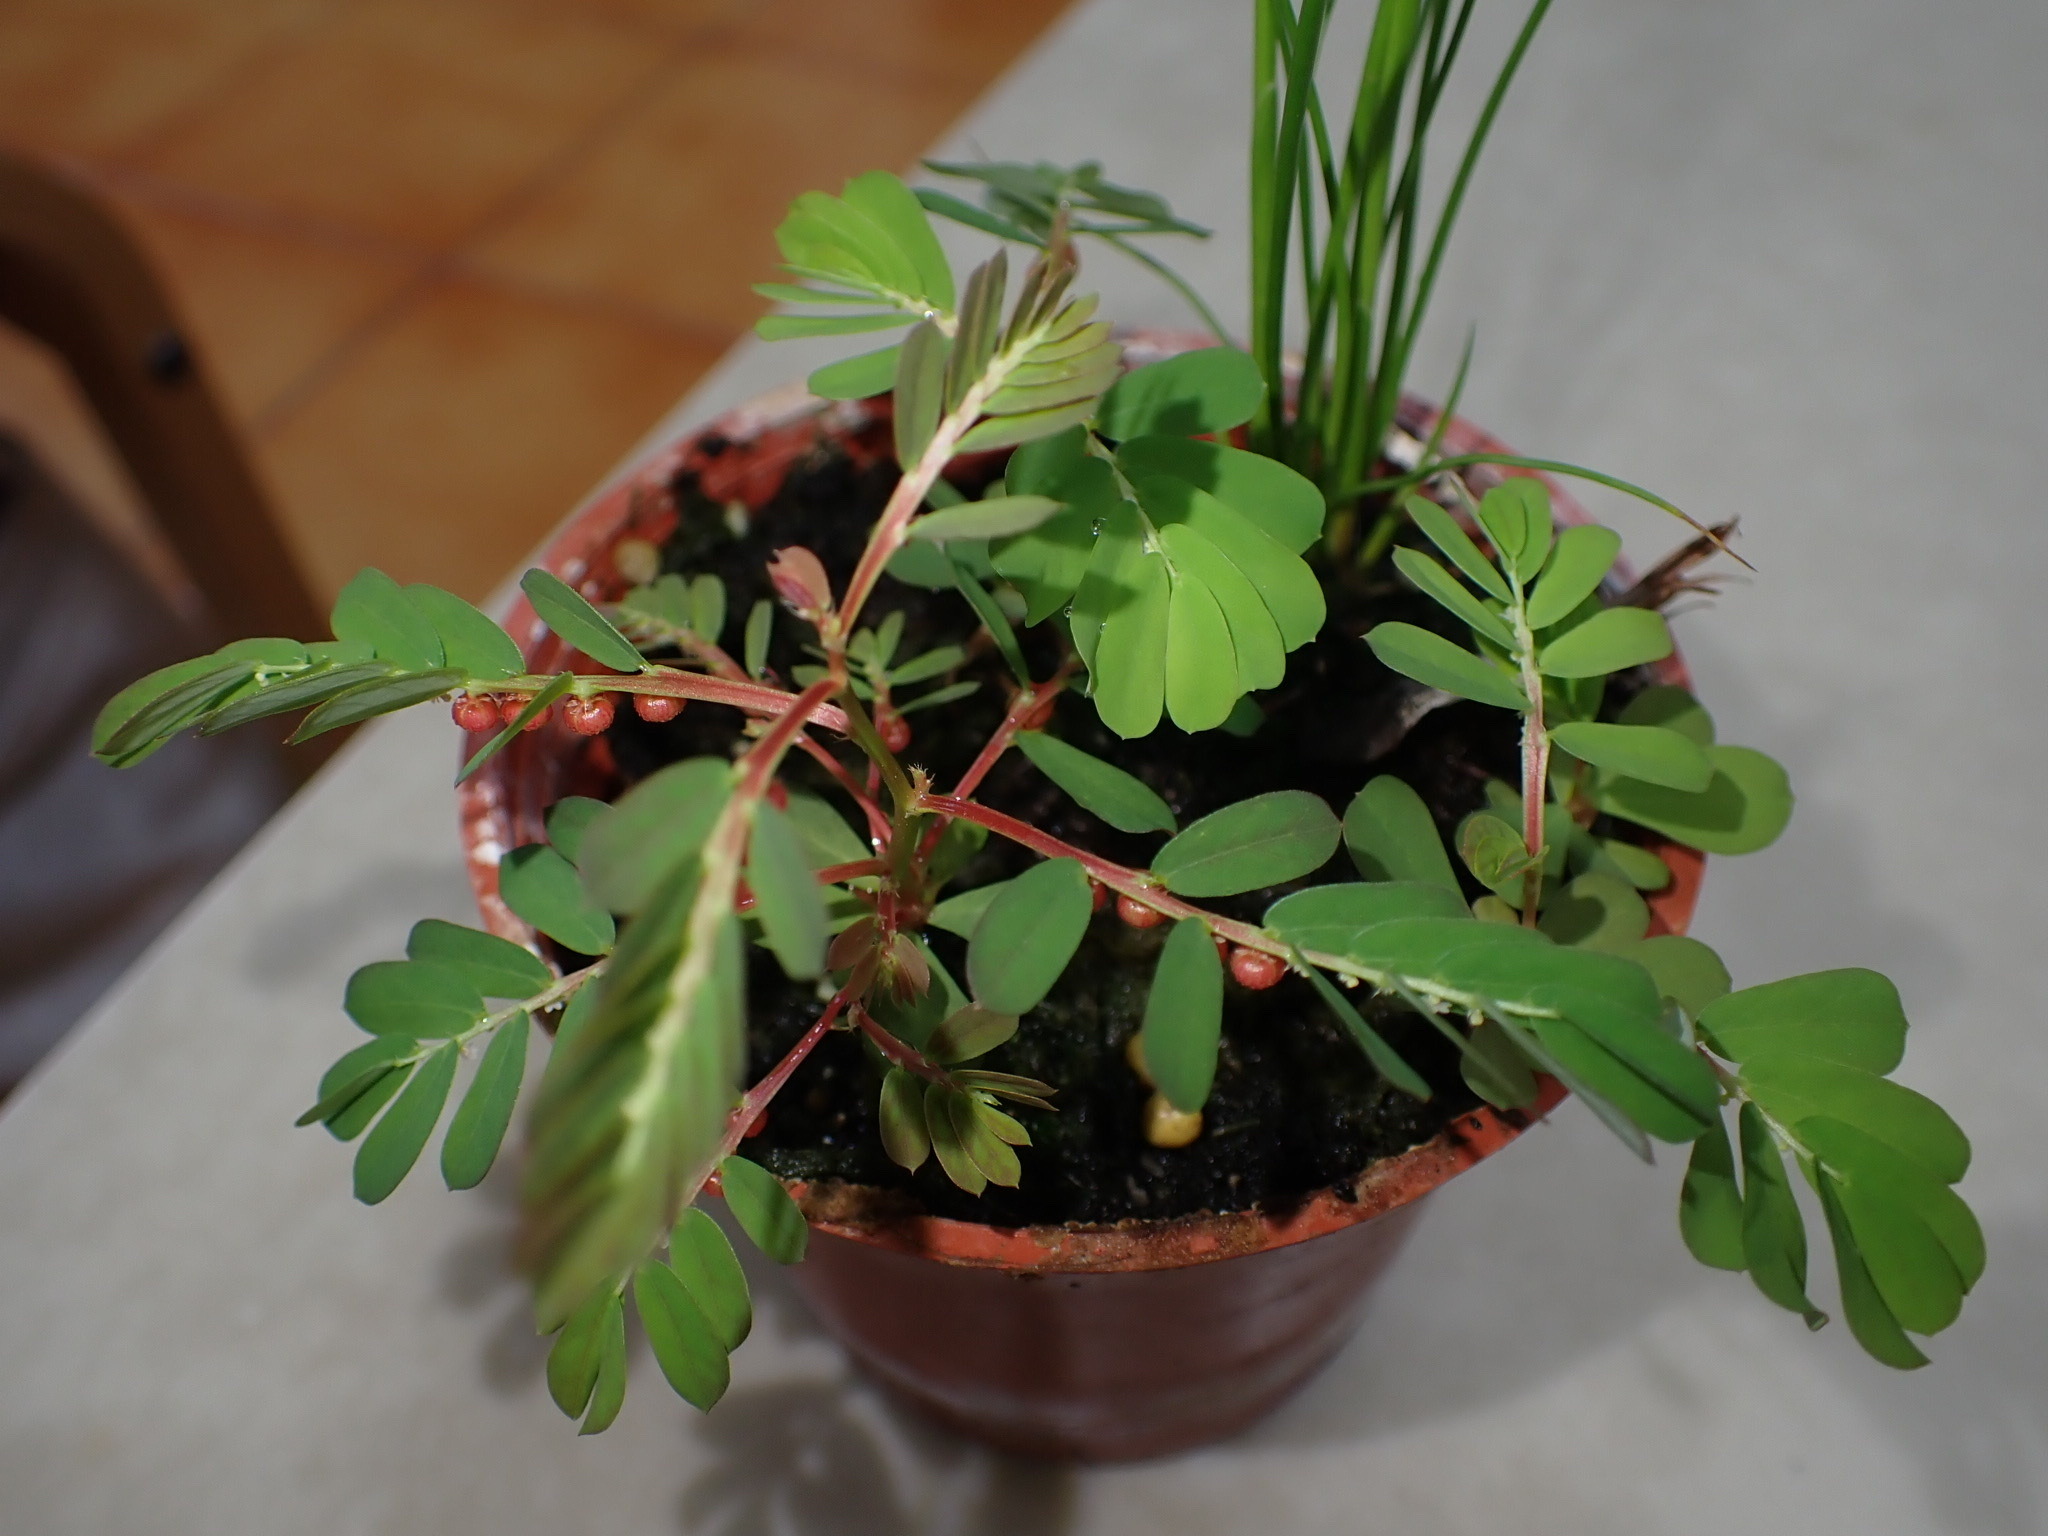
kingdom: Plantae
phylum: Tracheophyta
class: Magnoliopsida
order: Malpighiales
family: Phyllanthaceae
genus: Phyllanthus
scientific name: Phyllanthus urinaria
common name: Chamber bitter
